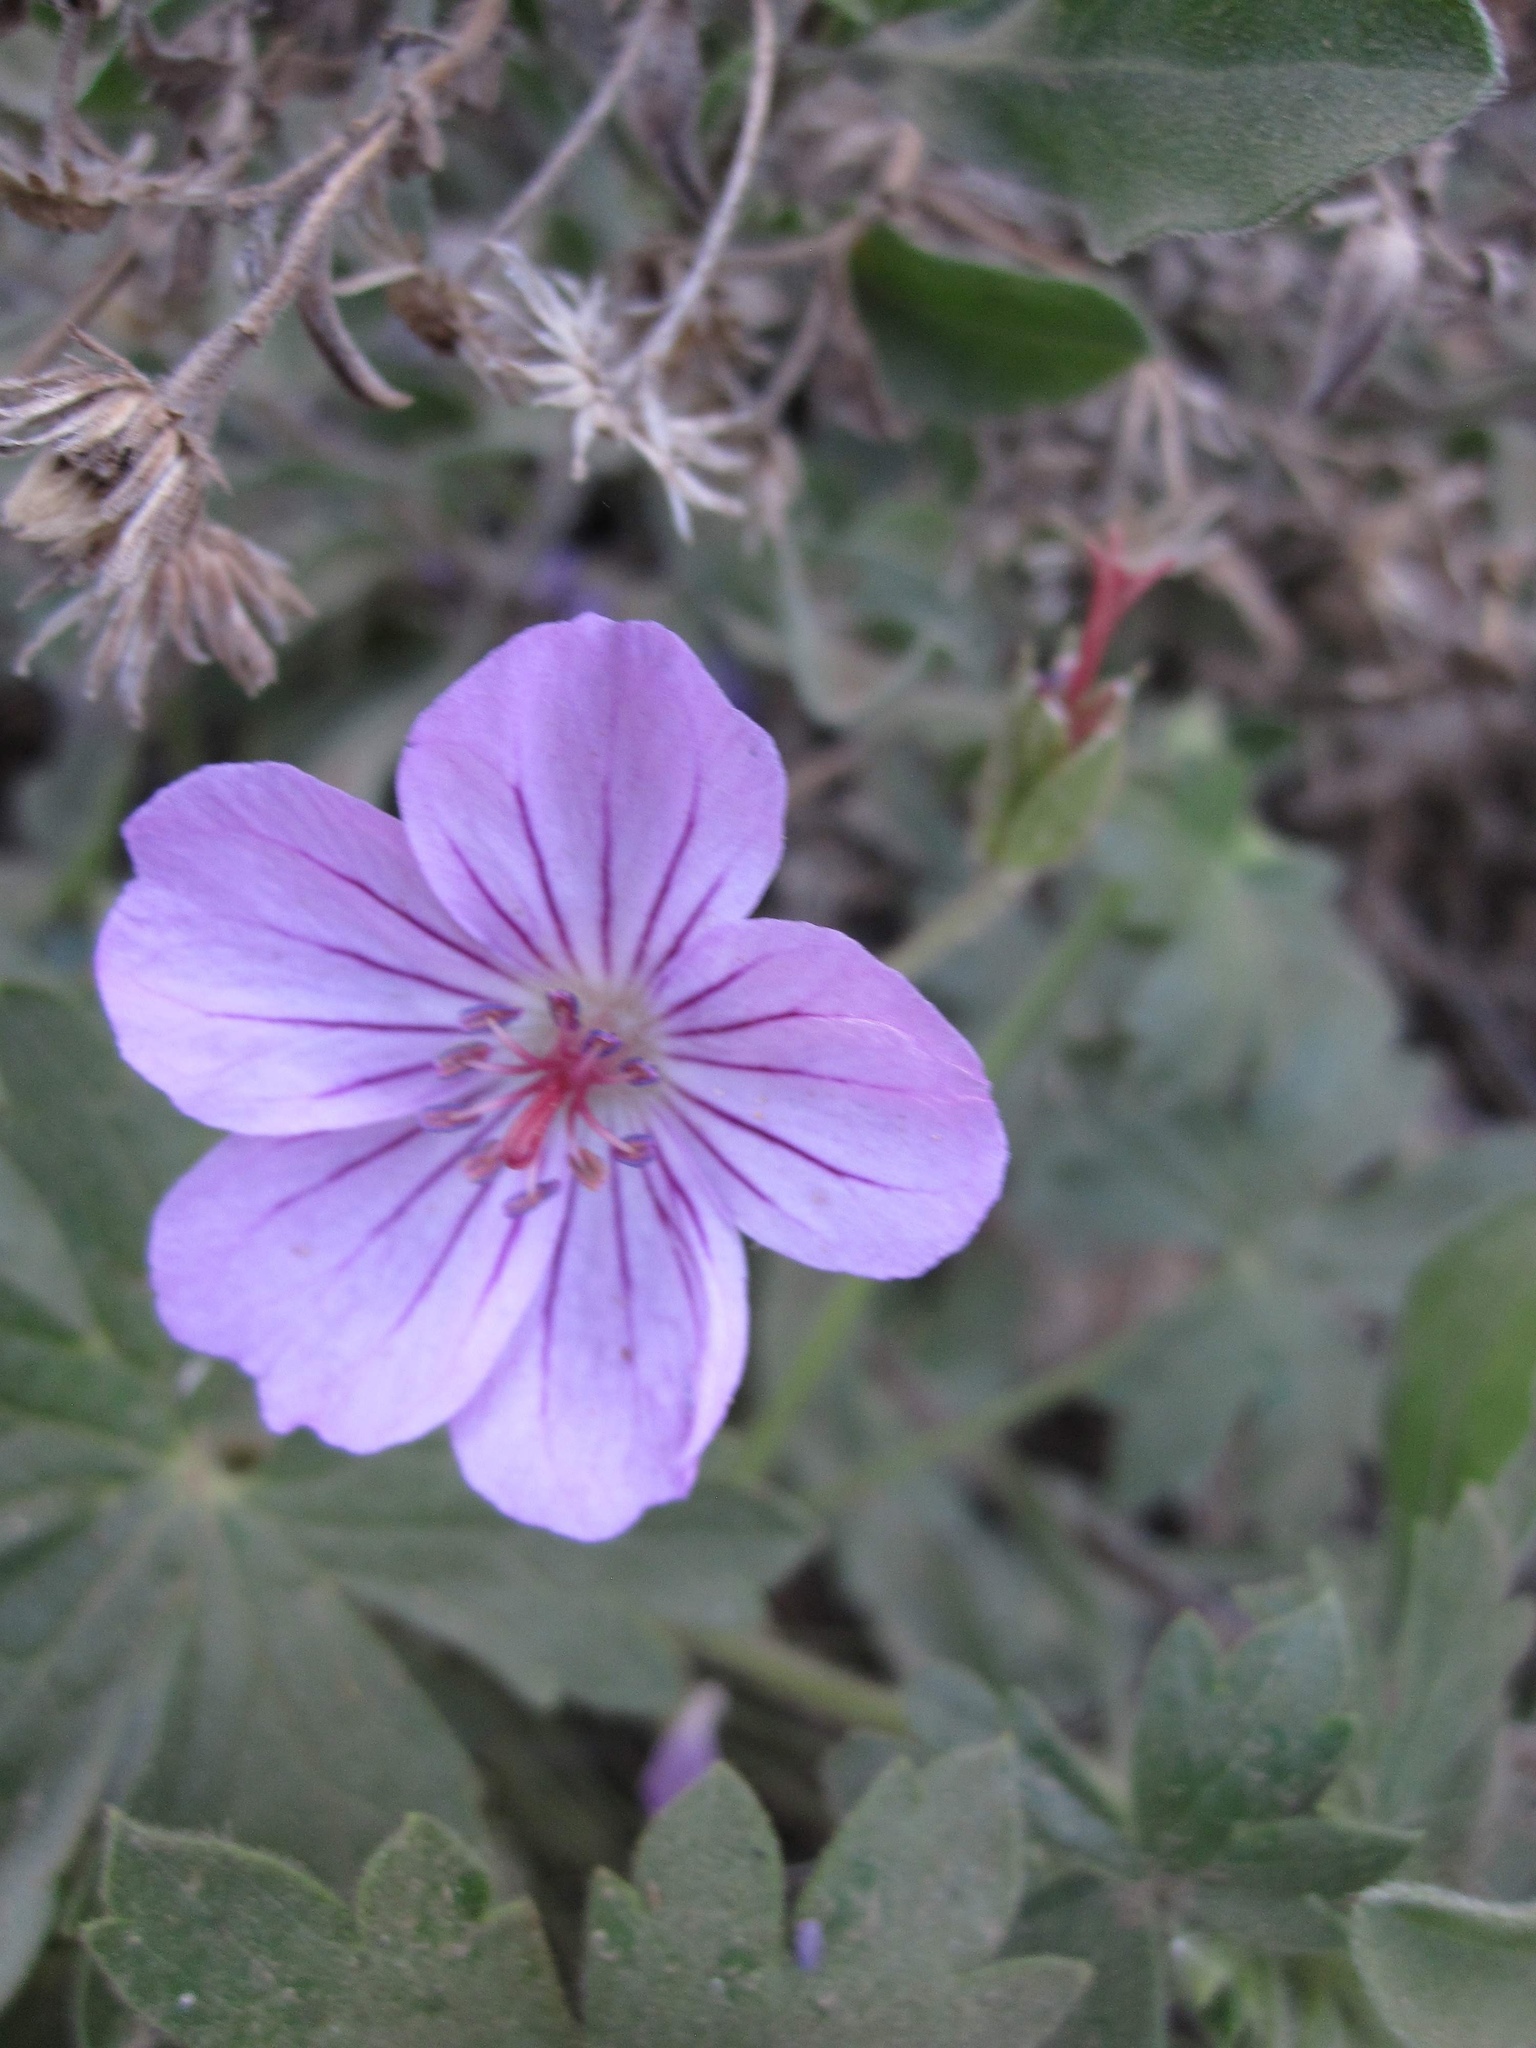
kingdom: Plantae
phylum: Tracheophyta
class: Magnoliopsida
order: Geraniales
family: Geraniaceae
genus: Geranium
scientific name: Geranium richardsonii
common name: Richardson's crane's-bill
